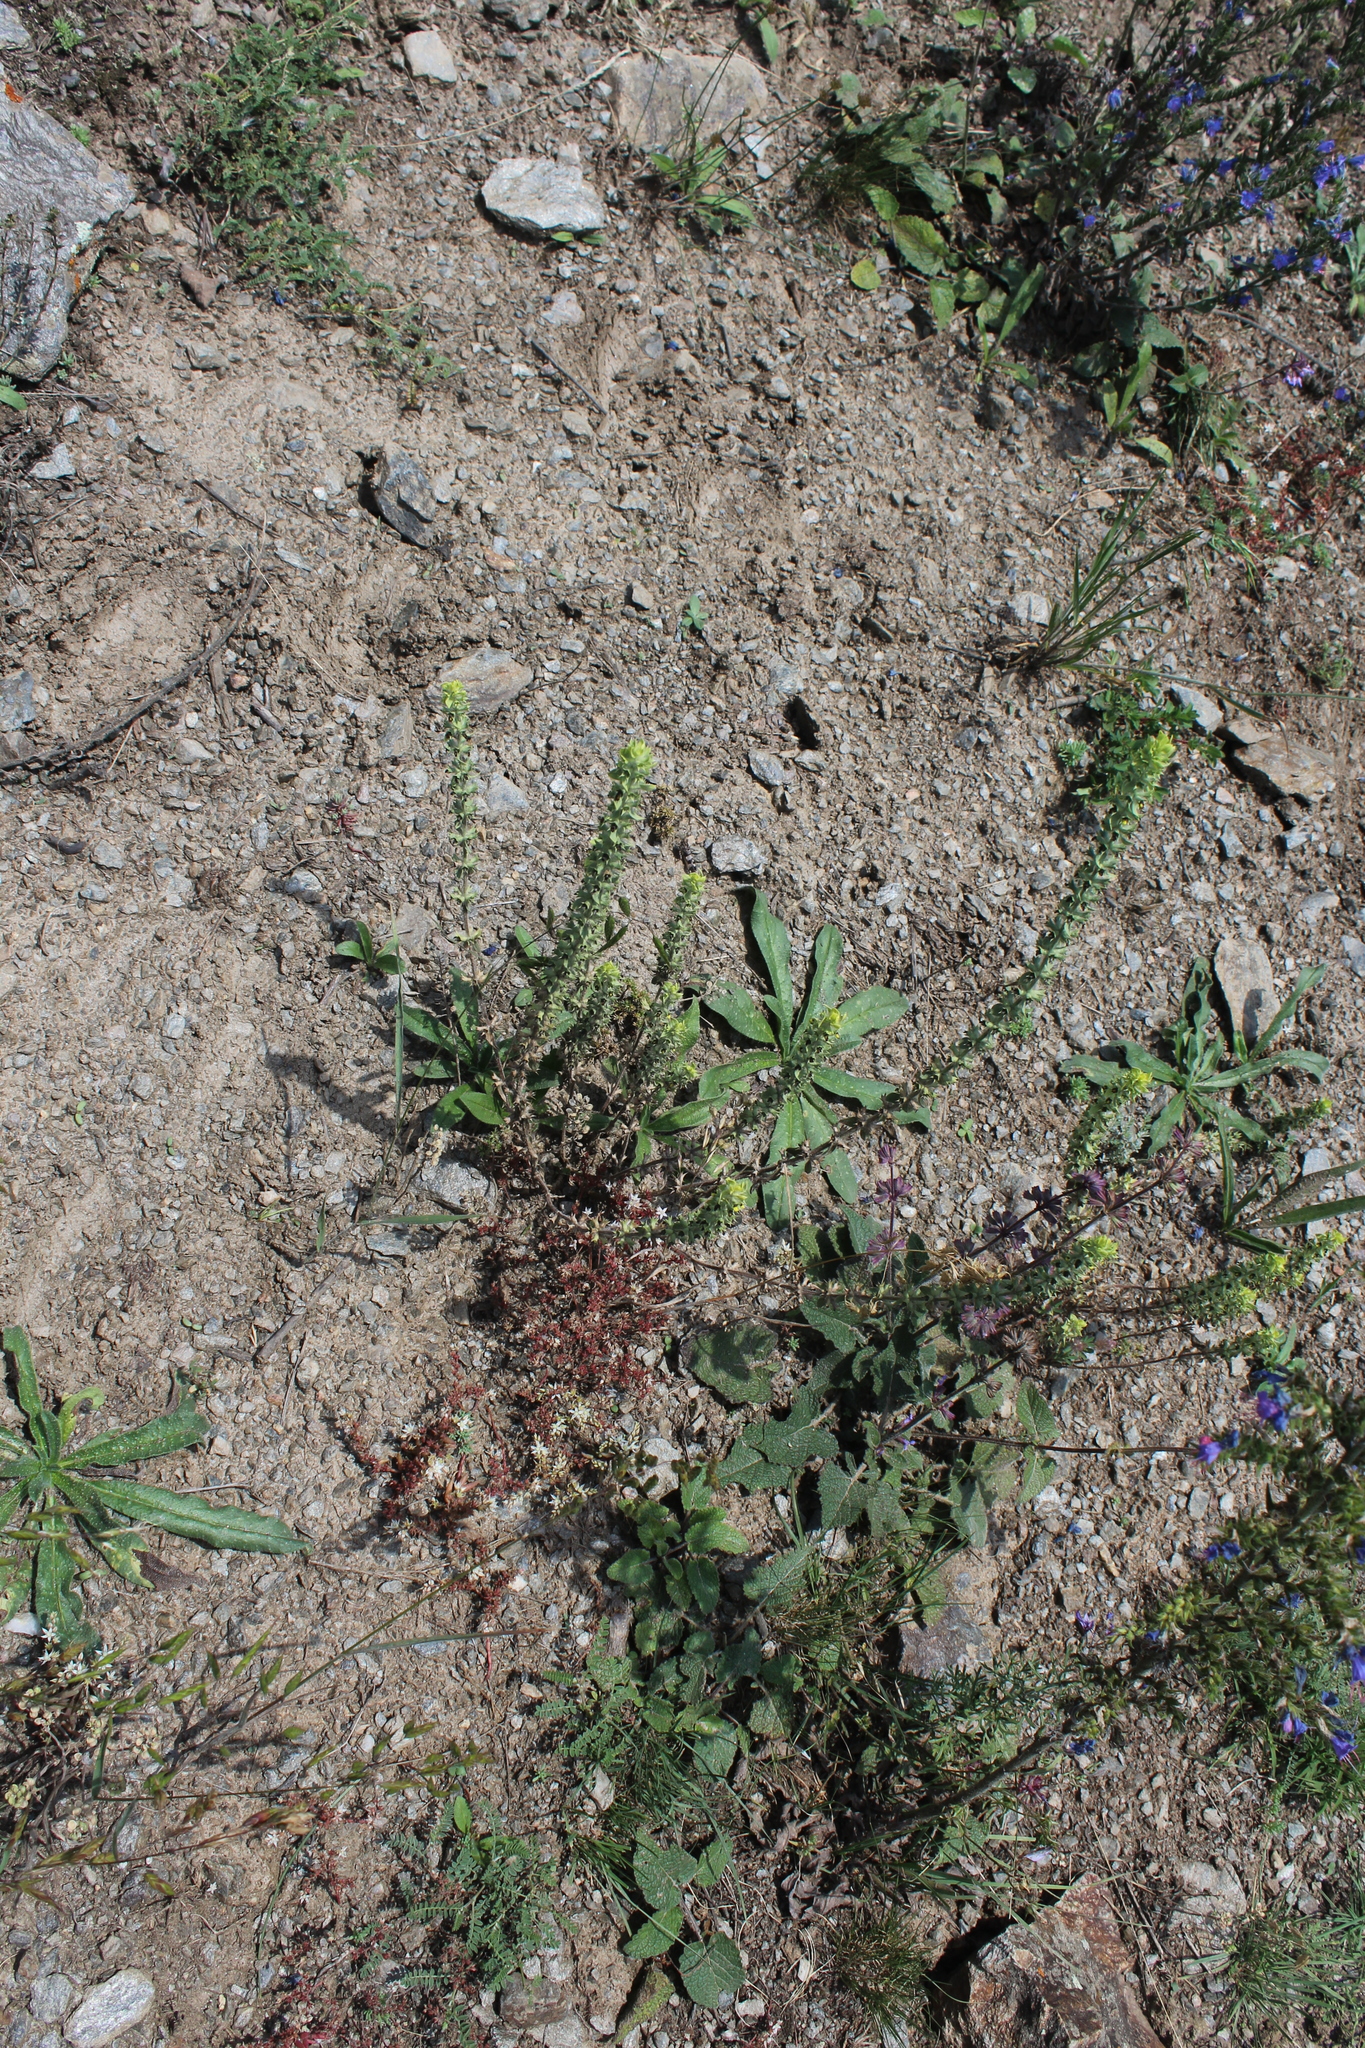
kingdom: Plantae
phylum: Tracheophyta
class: Magnoliopsida
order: Lamiales
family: Lamiaceae
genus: Sideritis
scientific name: Sideritis montana
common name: Mountain ironwort
